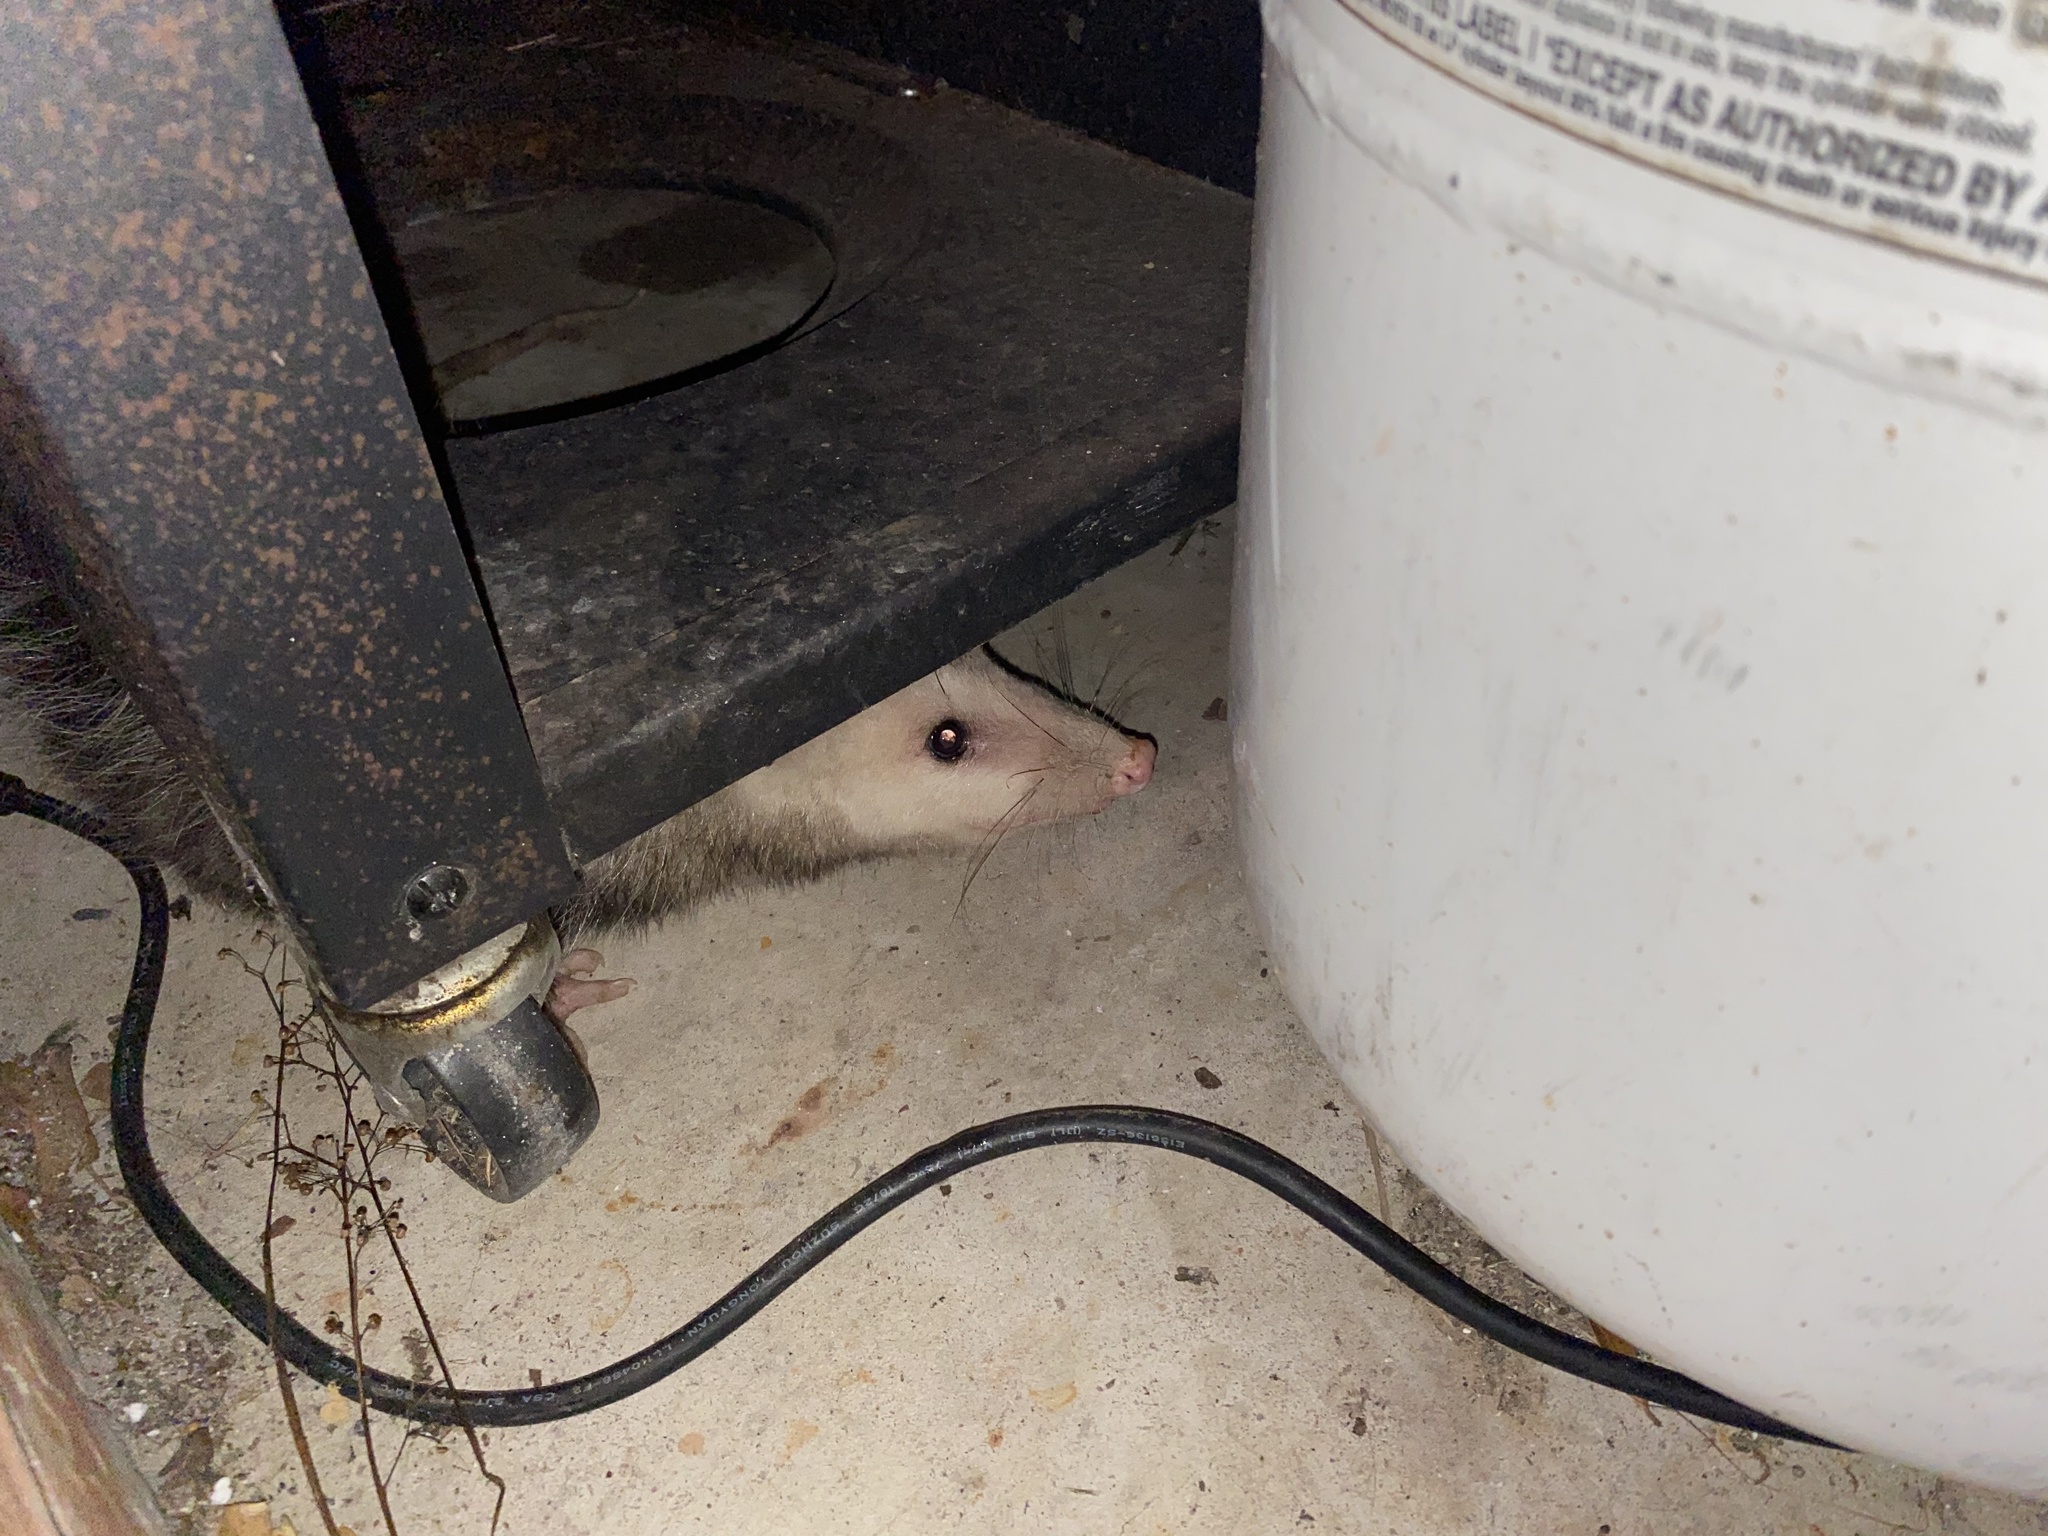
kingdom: Animalia
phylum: Chordata
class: Mammalia
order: Didelphimorphia
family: Didelphidae
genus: Didelphis
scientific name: Didelphis virginiana
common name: Virginia opossum
